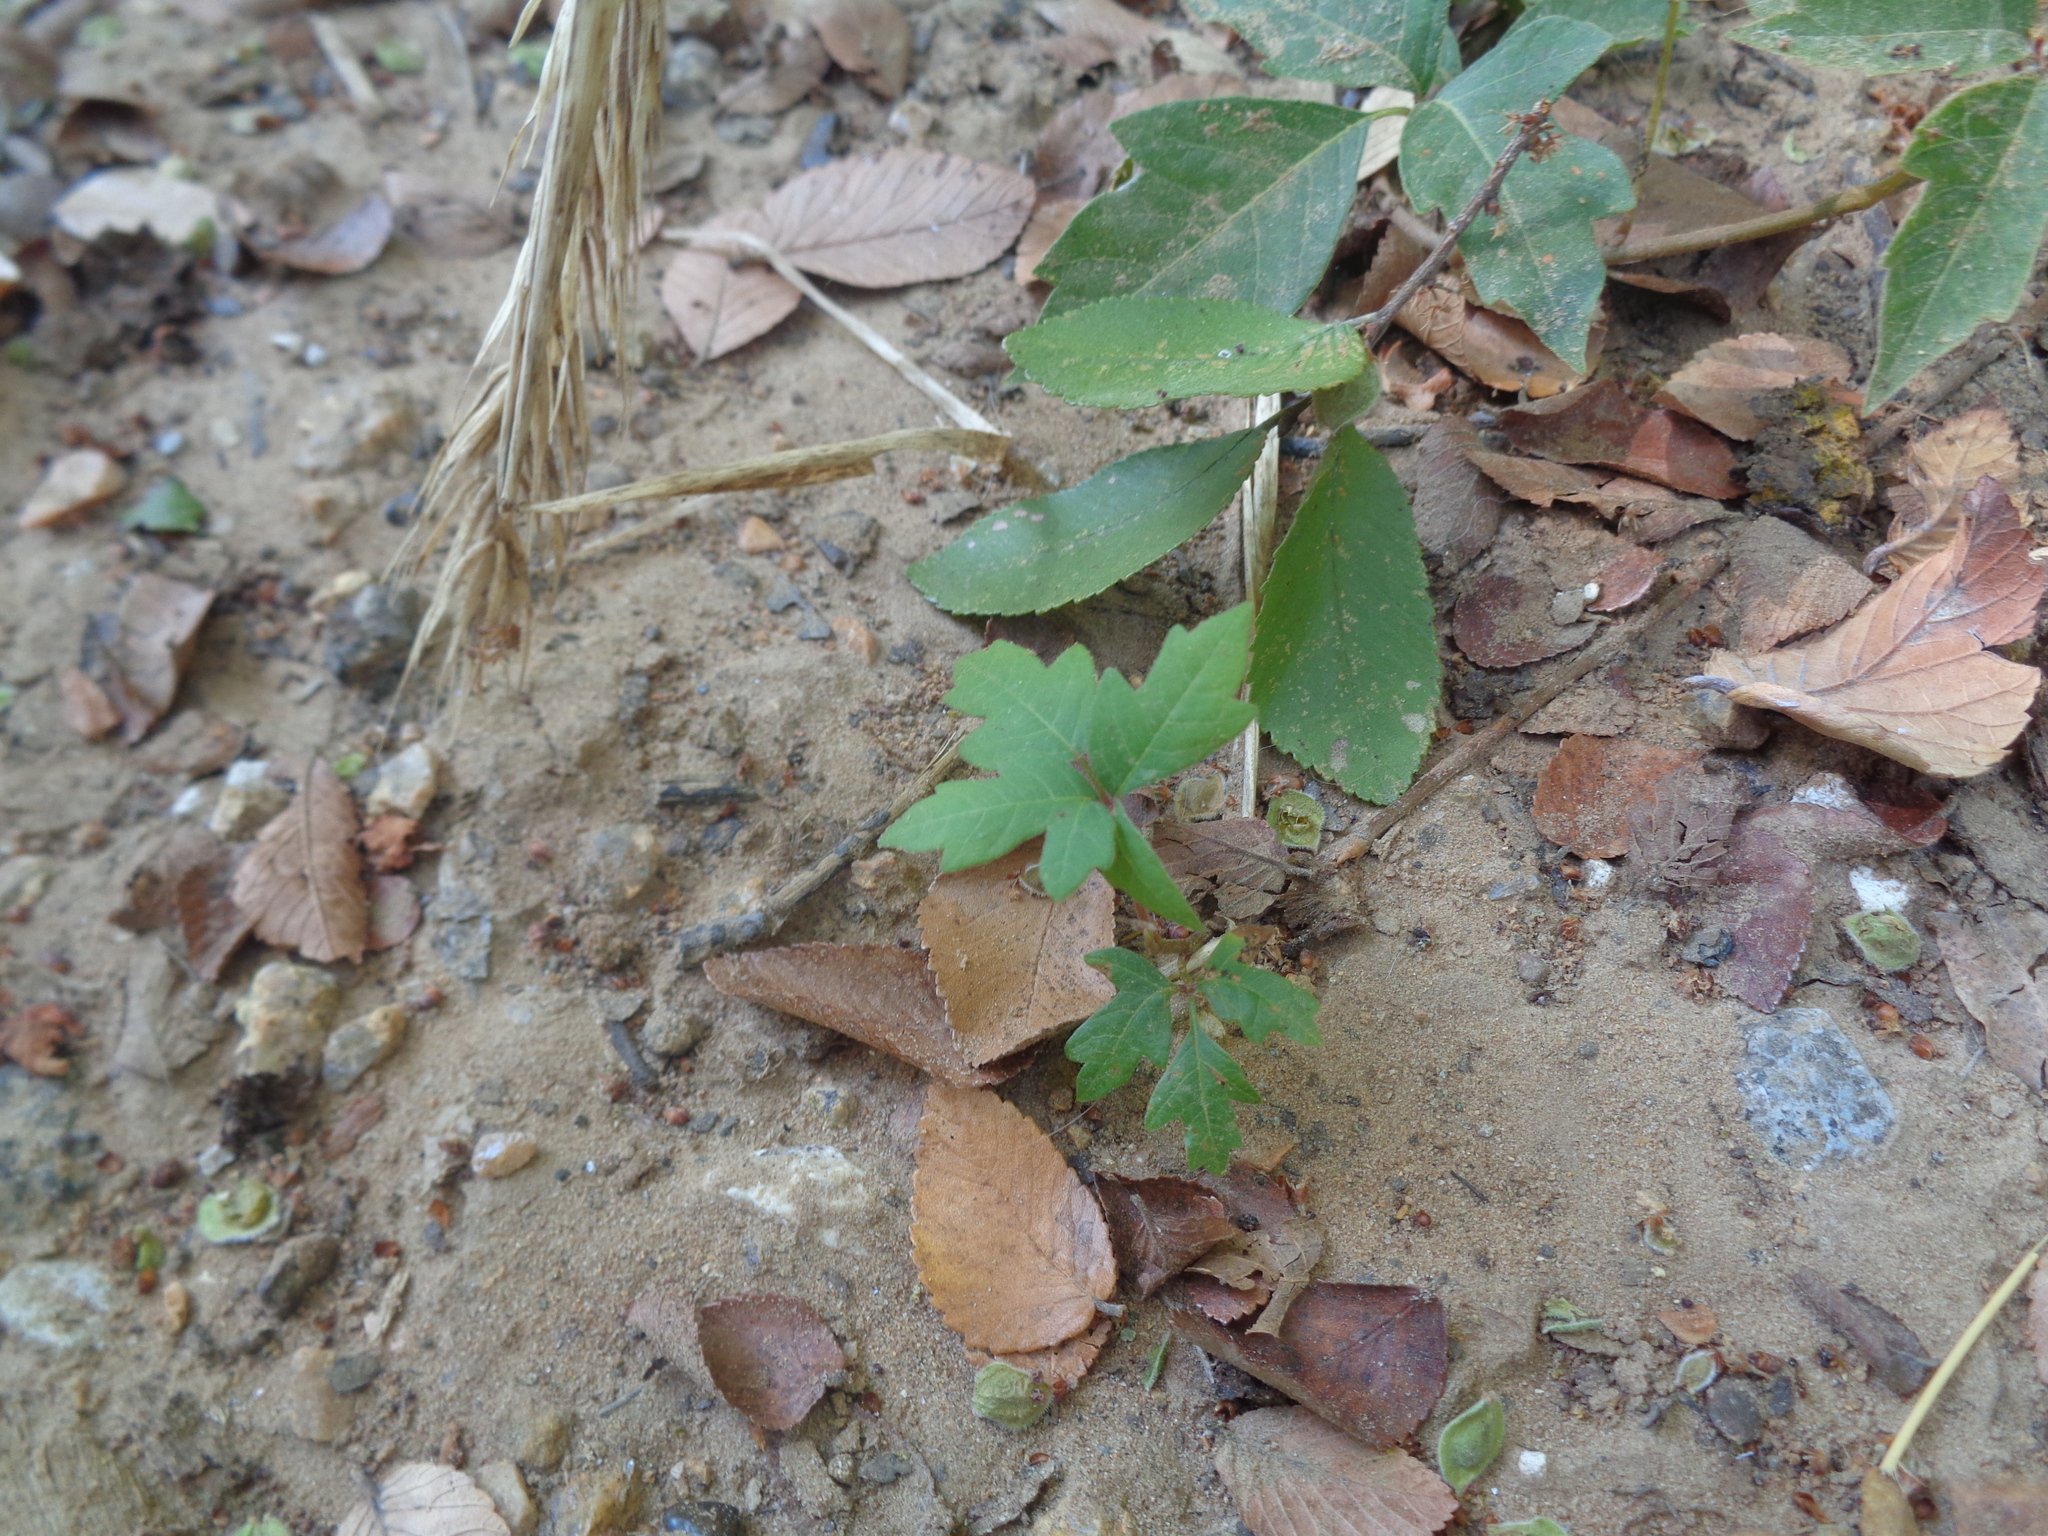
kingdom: Plantae
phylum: Tracheophyta
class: Magnoliopsida
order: Sapindales
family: Anacardiaceae
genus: Toxicodendron
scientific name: Toxicodendron radicans
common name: Poison ivy
